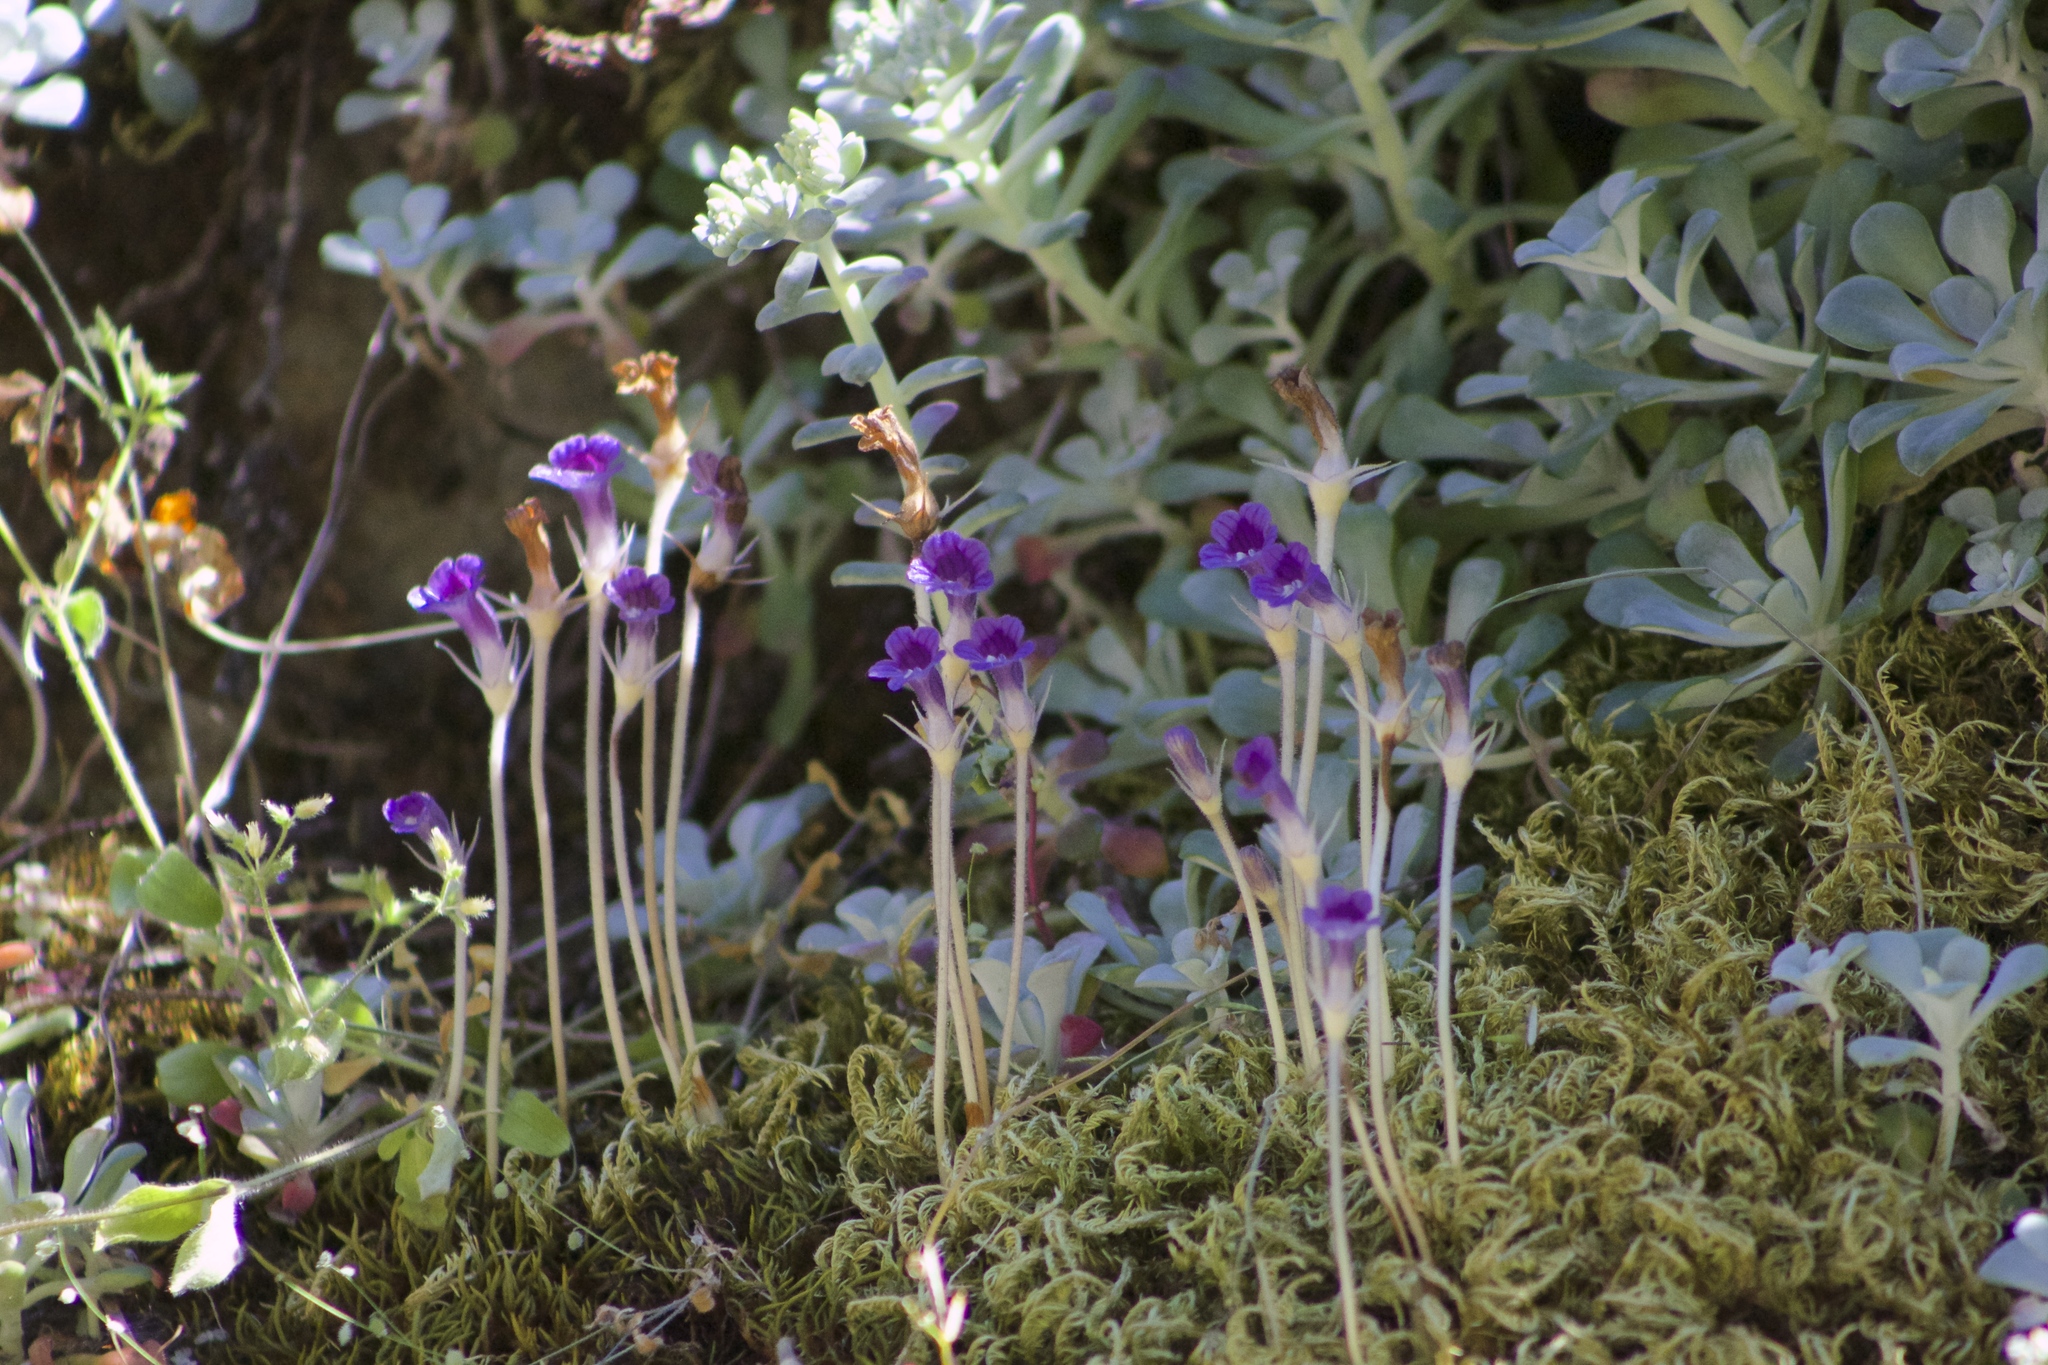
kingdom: Plantae
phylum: Tracheophyta
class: Magnoliopsida
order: Lamiales
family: Orobanchaceae
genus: Aphyllon
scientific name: Aphyllon uniflorum
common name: One-flowered broomrape
